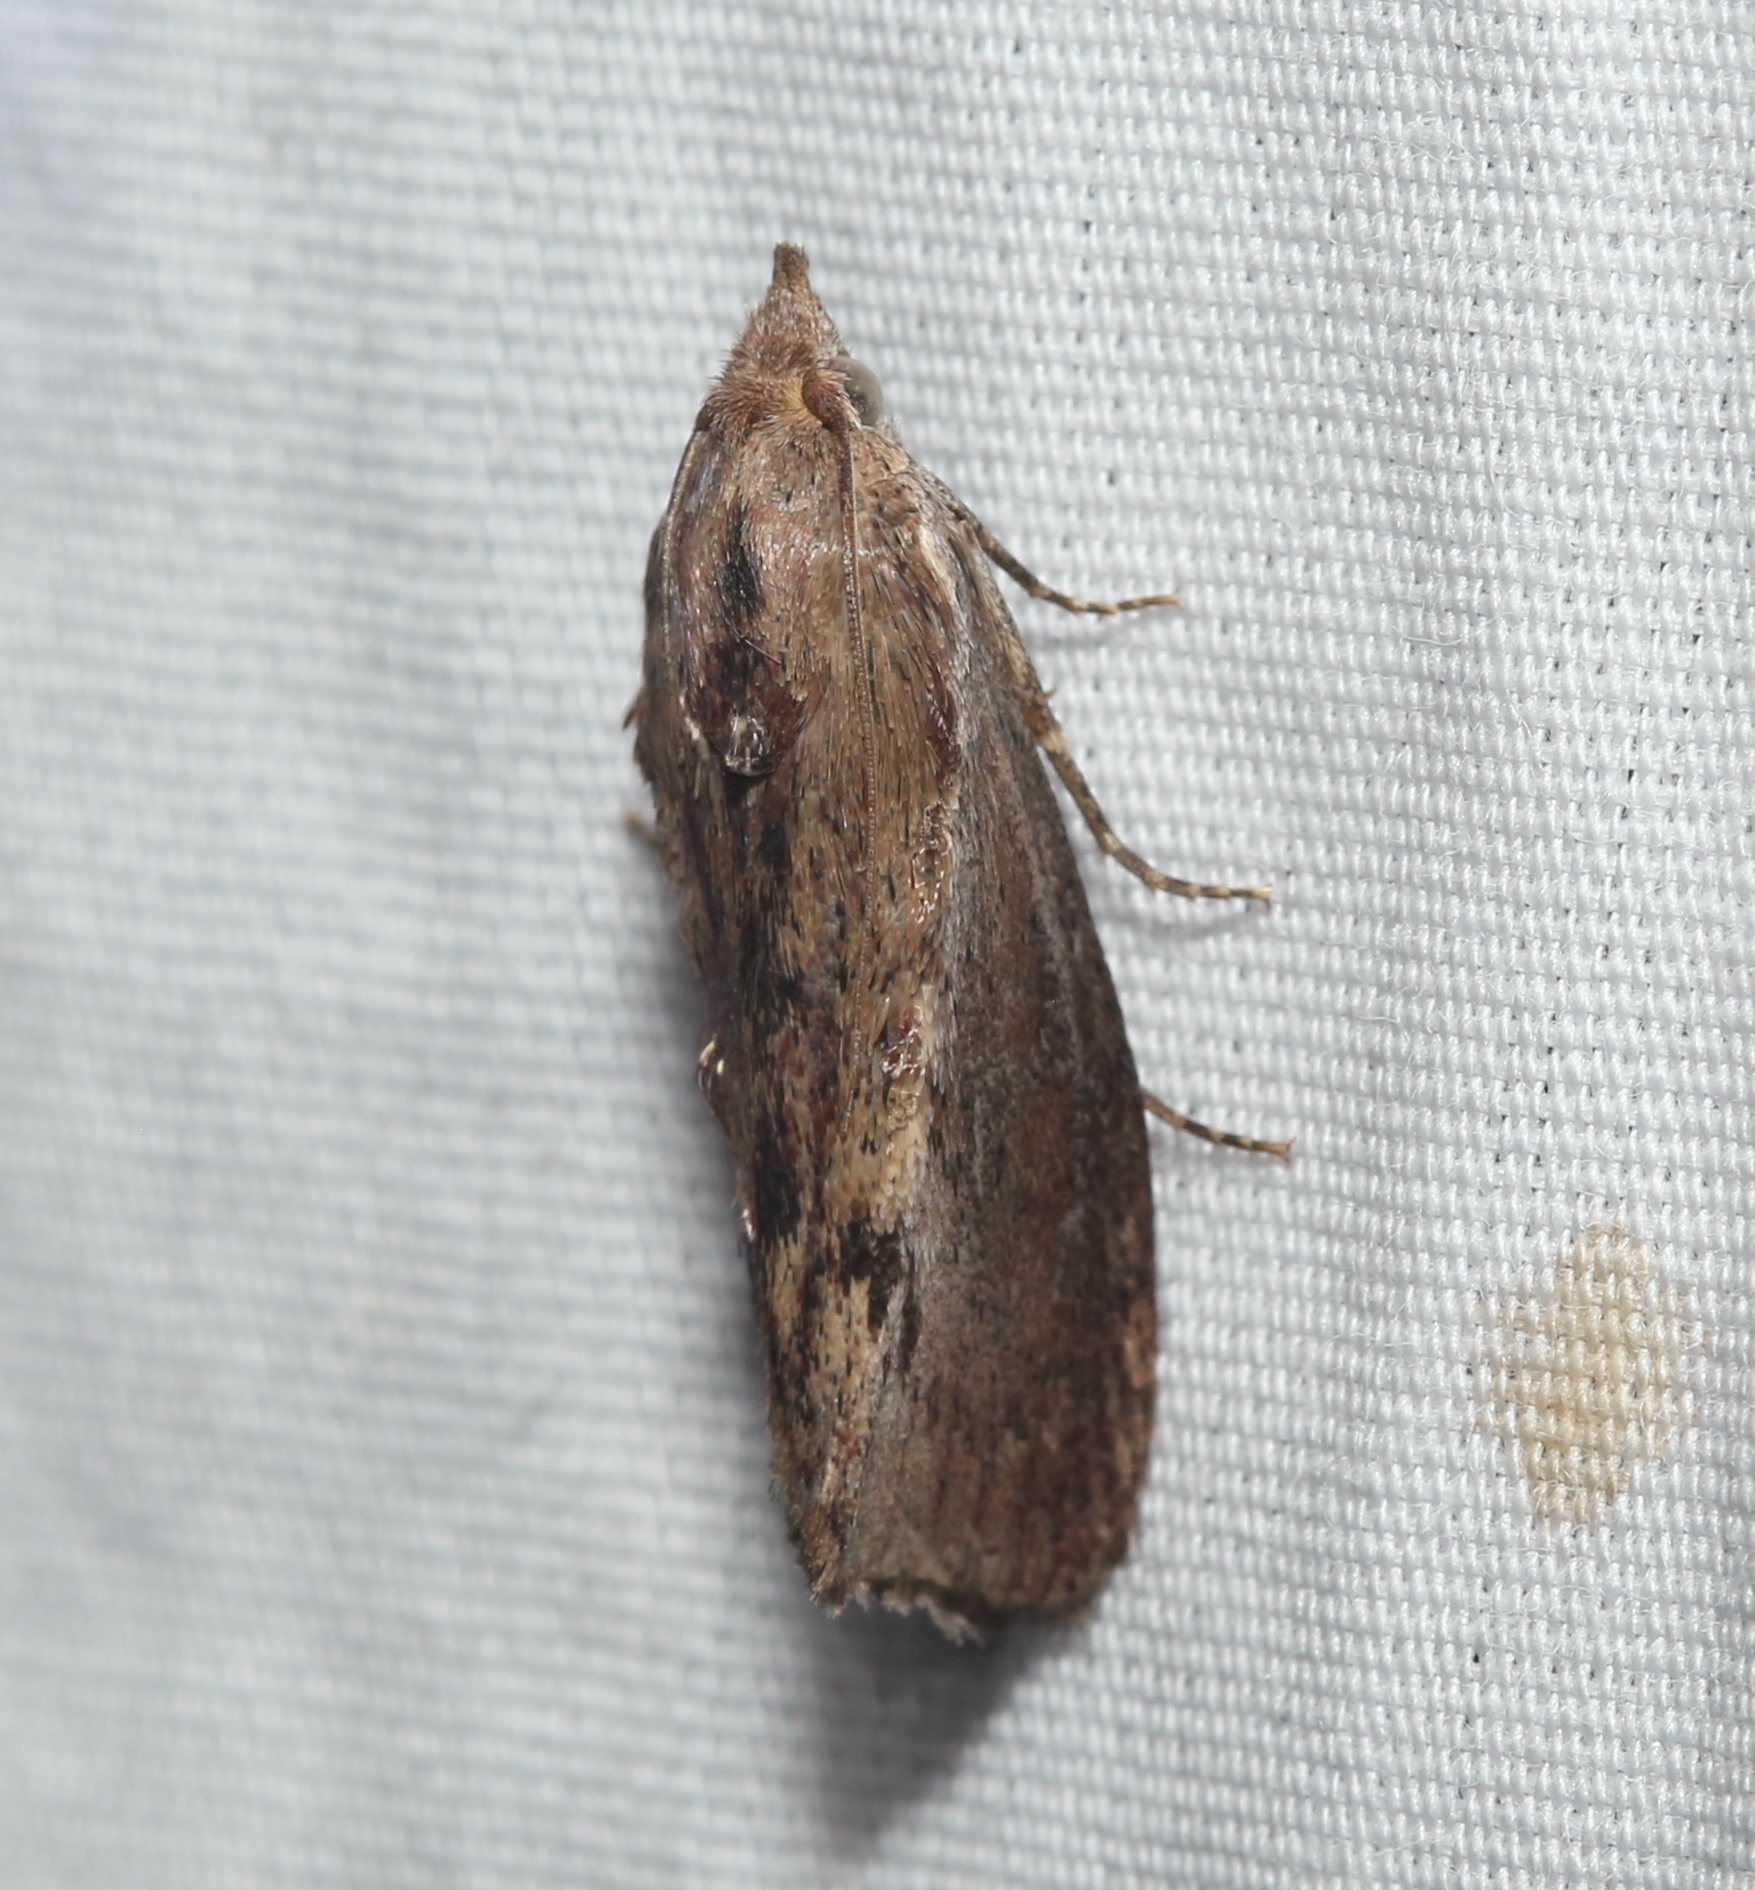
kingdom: Animalia
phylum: Arthropoda
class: Insecta
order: Lepidoptera
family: Pyralidae
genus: Galleria
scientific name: Galleria mellonella
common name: Greater wax moth
